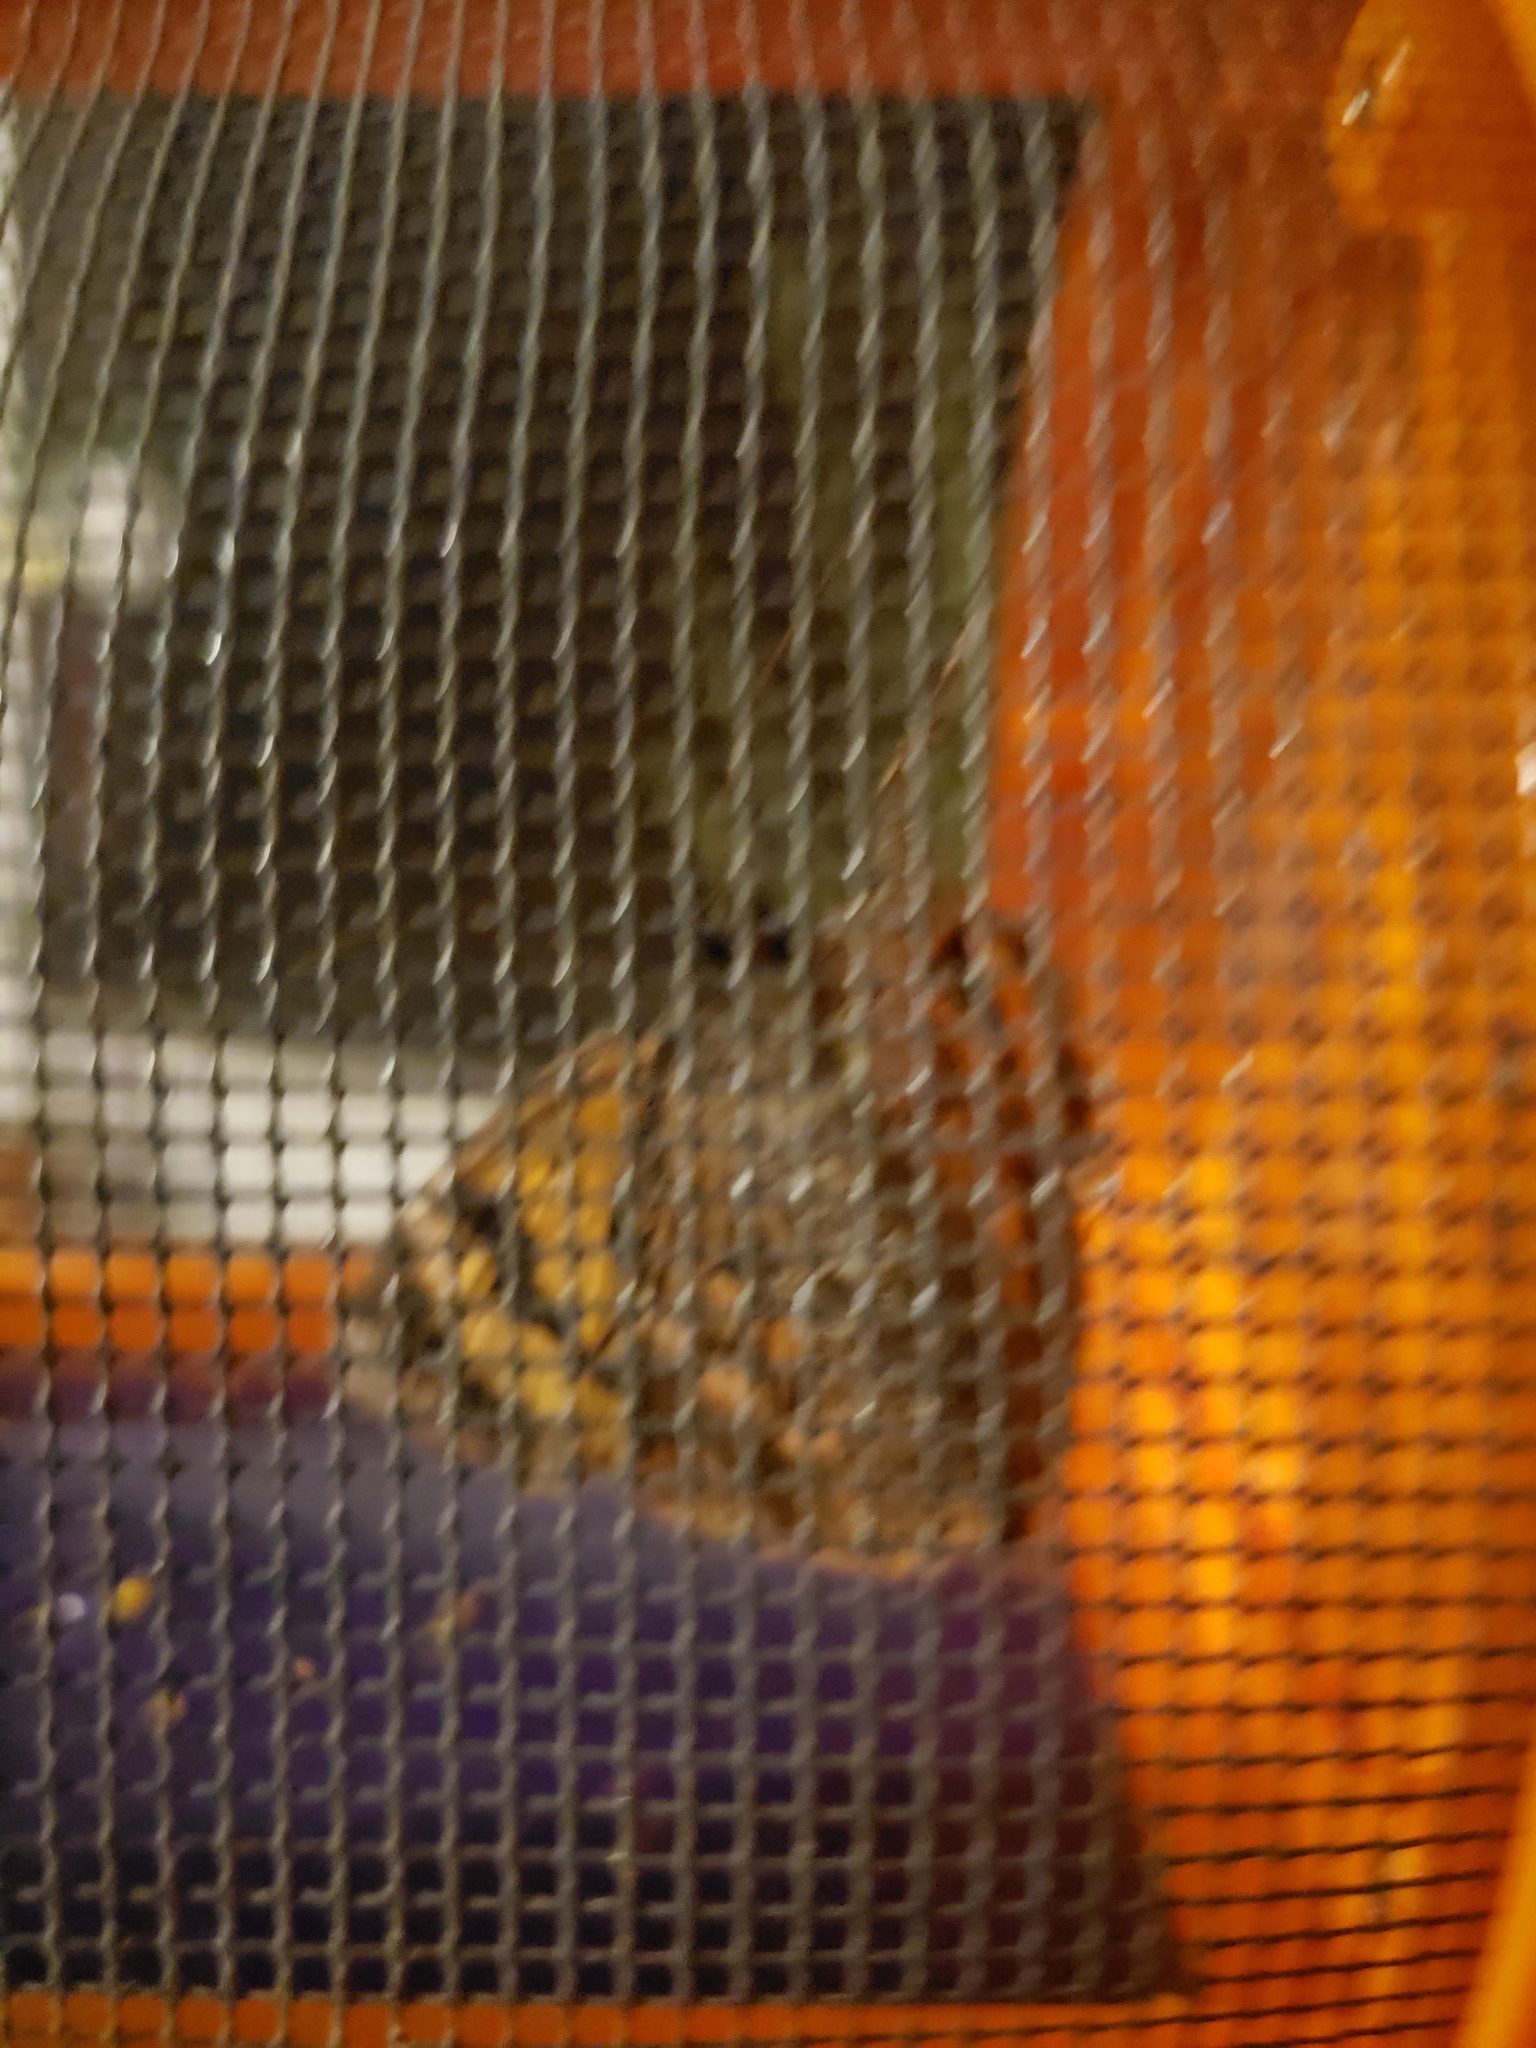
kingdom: Animalia
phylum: Arthropoda
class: Insecta
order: Lepidoptera
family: Erebidae
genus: Euparthenos
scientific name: Euparthenos nubilis
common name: Locust underwing
